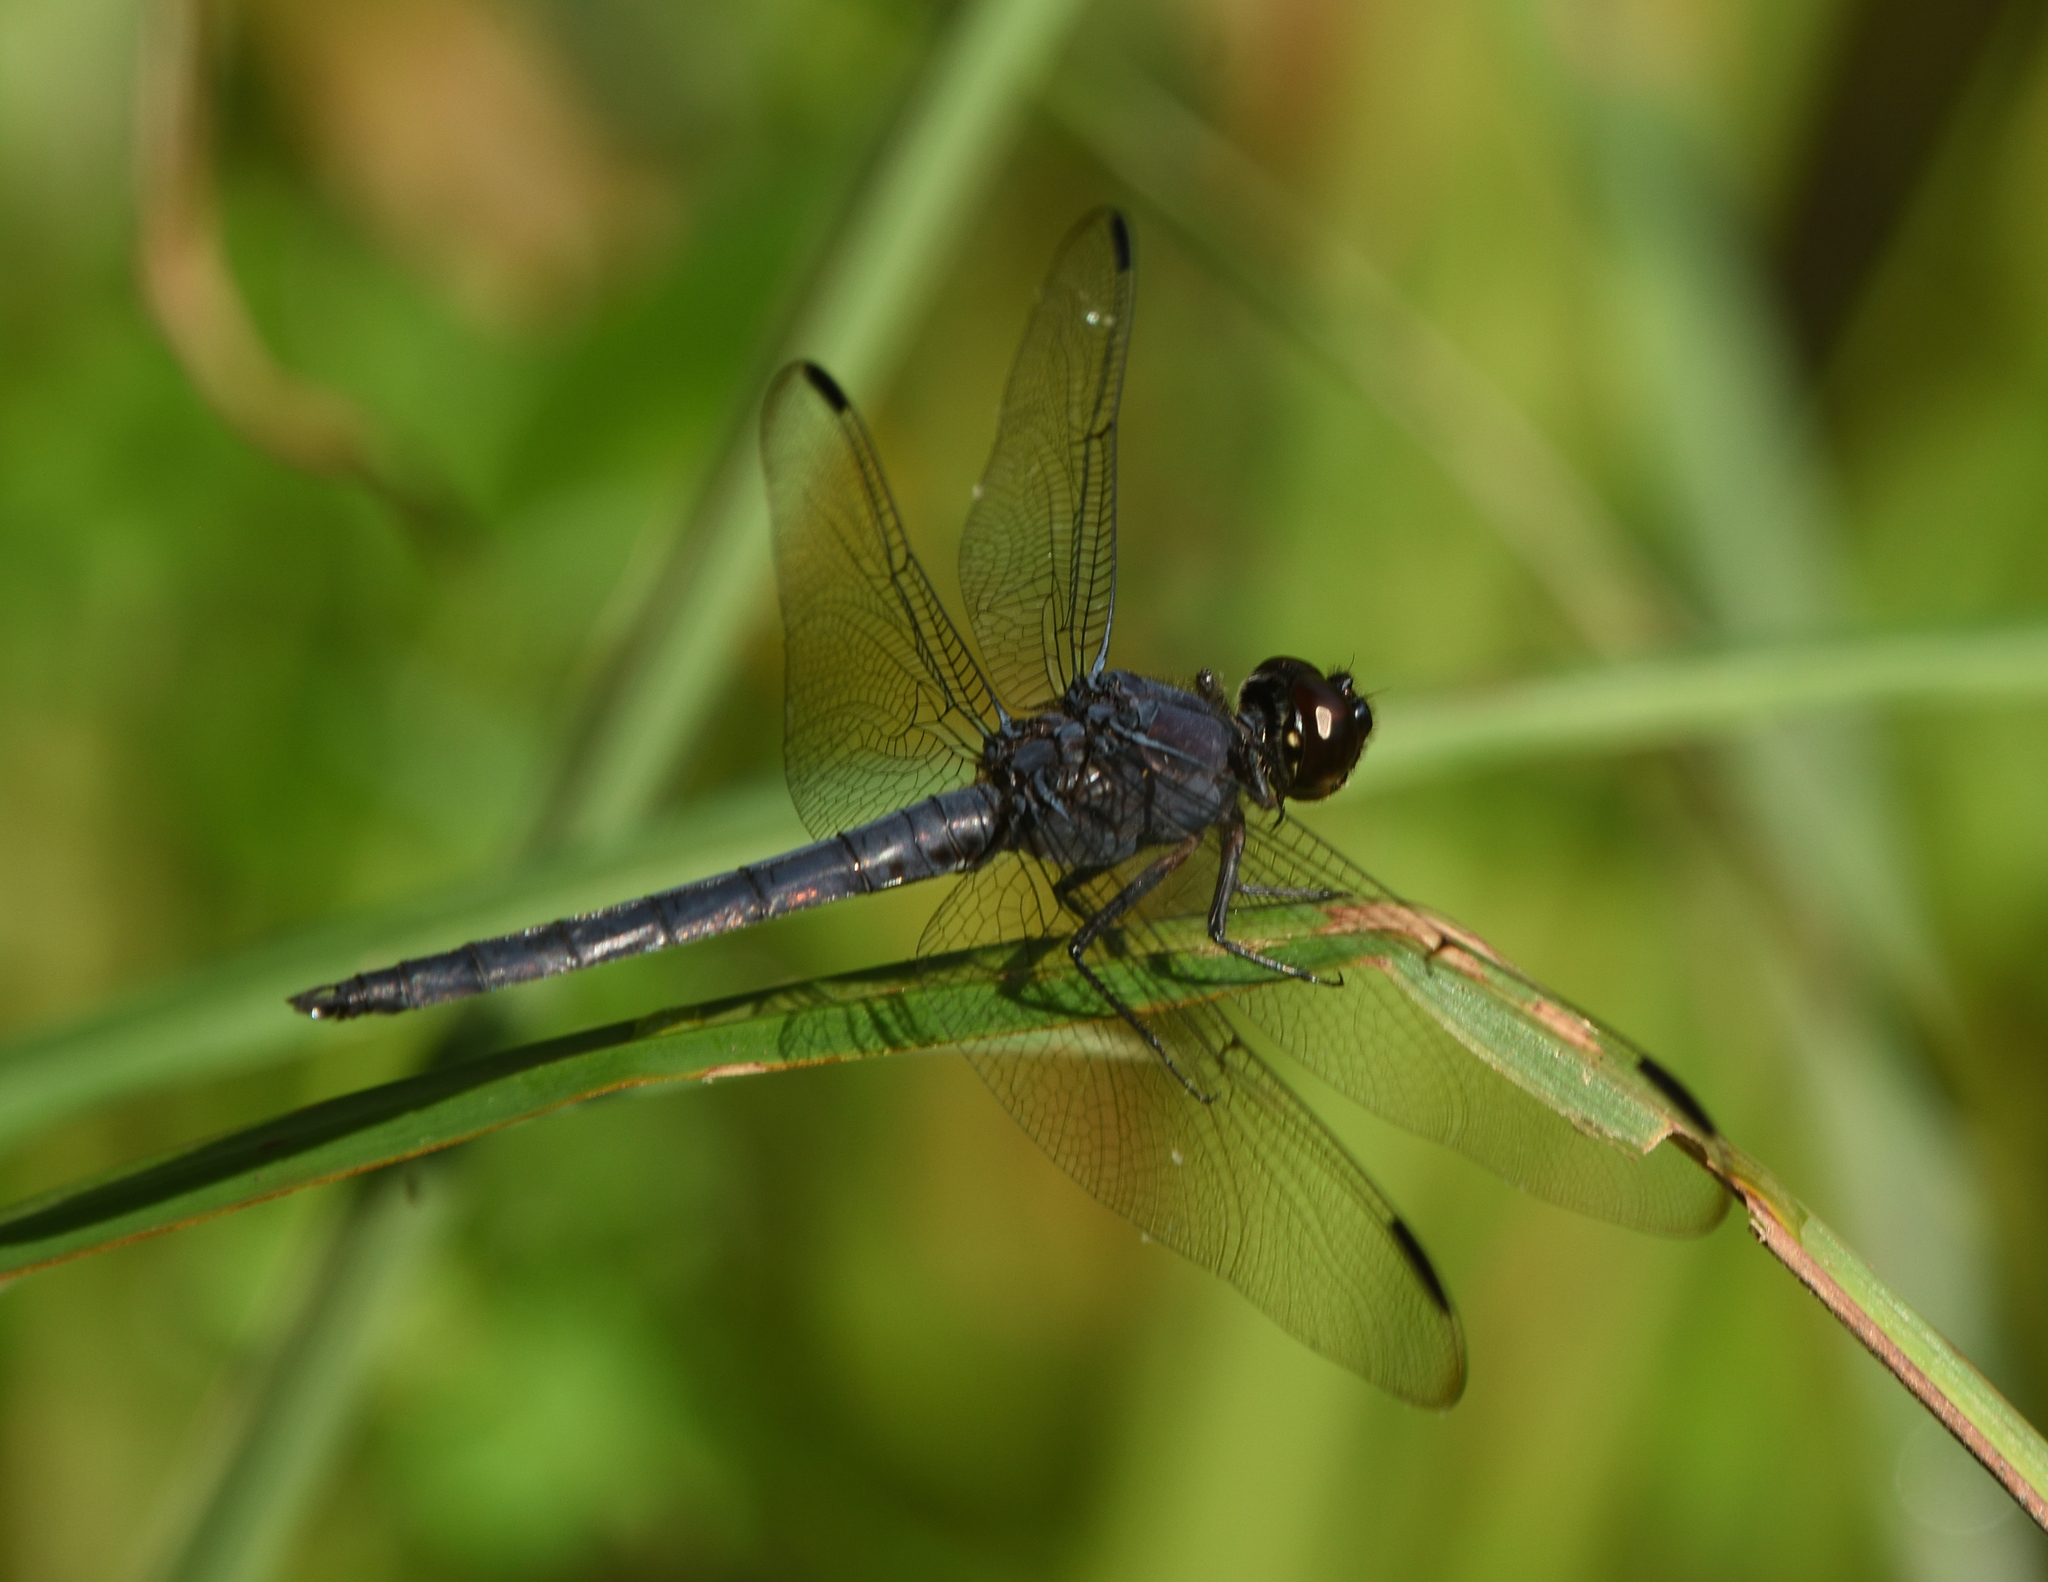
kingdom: Animalia
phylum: Arthropoda
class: Insecta
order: Odonata
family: Libellulidae
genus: Libellula
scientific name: Libellula incesta
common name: Slaty skimmer
